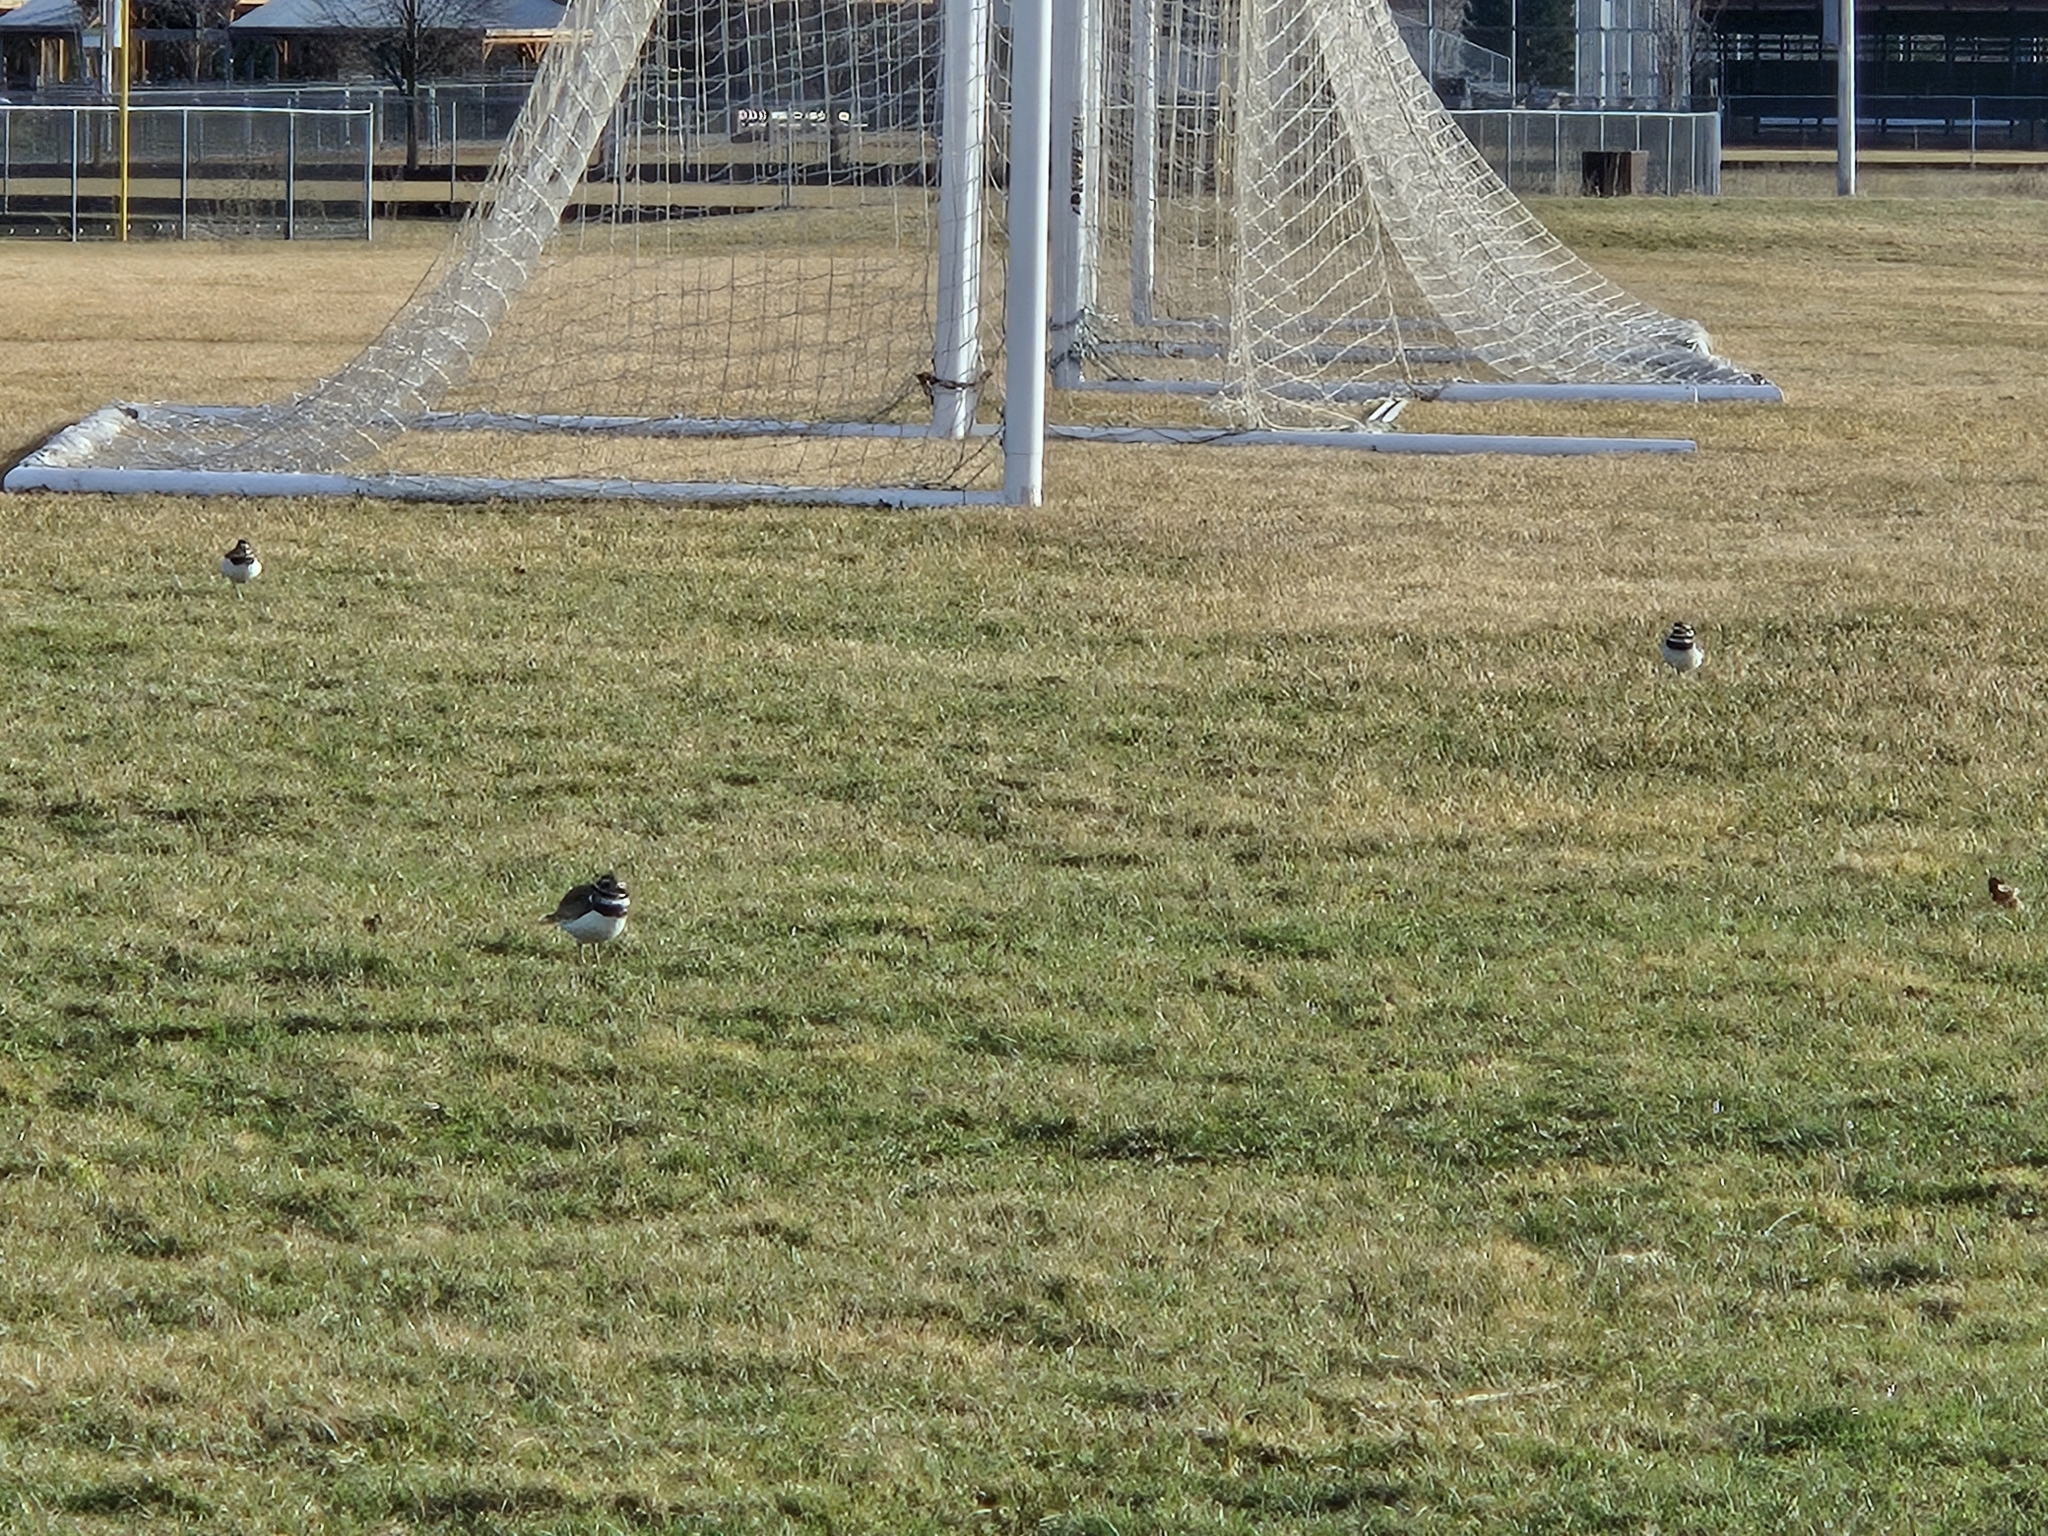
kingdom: Animalia
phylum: Chordata
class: Aves
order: Charadriiformes
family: Charadriidae
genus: Charadrius
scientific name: Charadrius vociferus
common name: Killdeer
